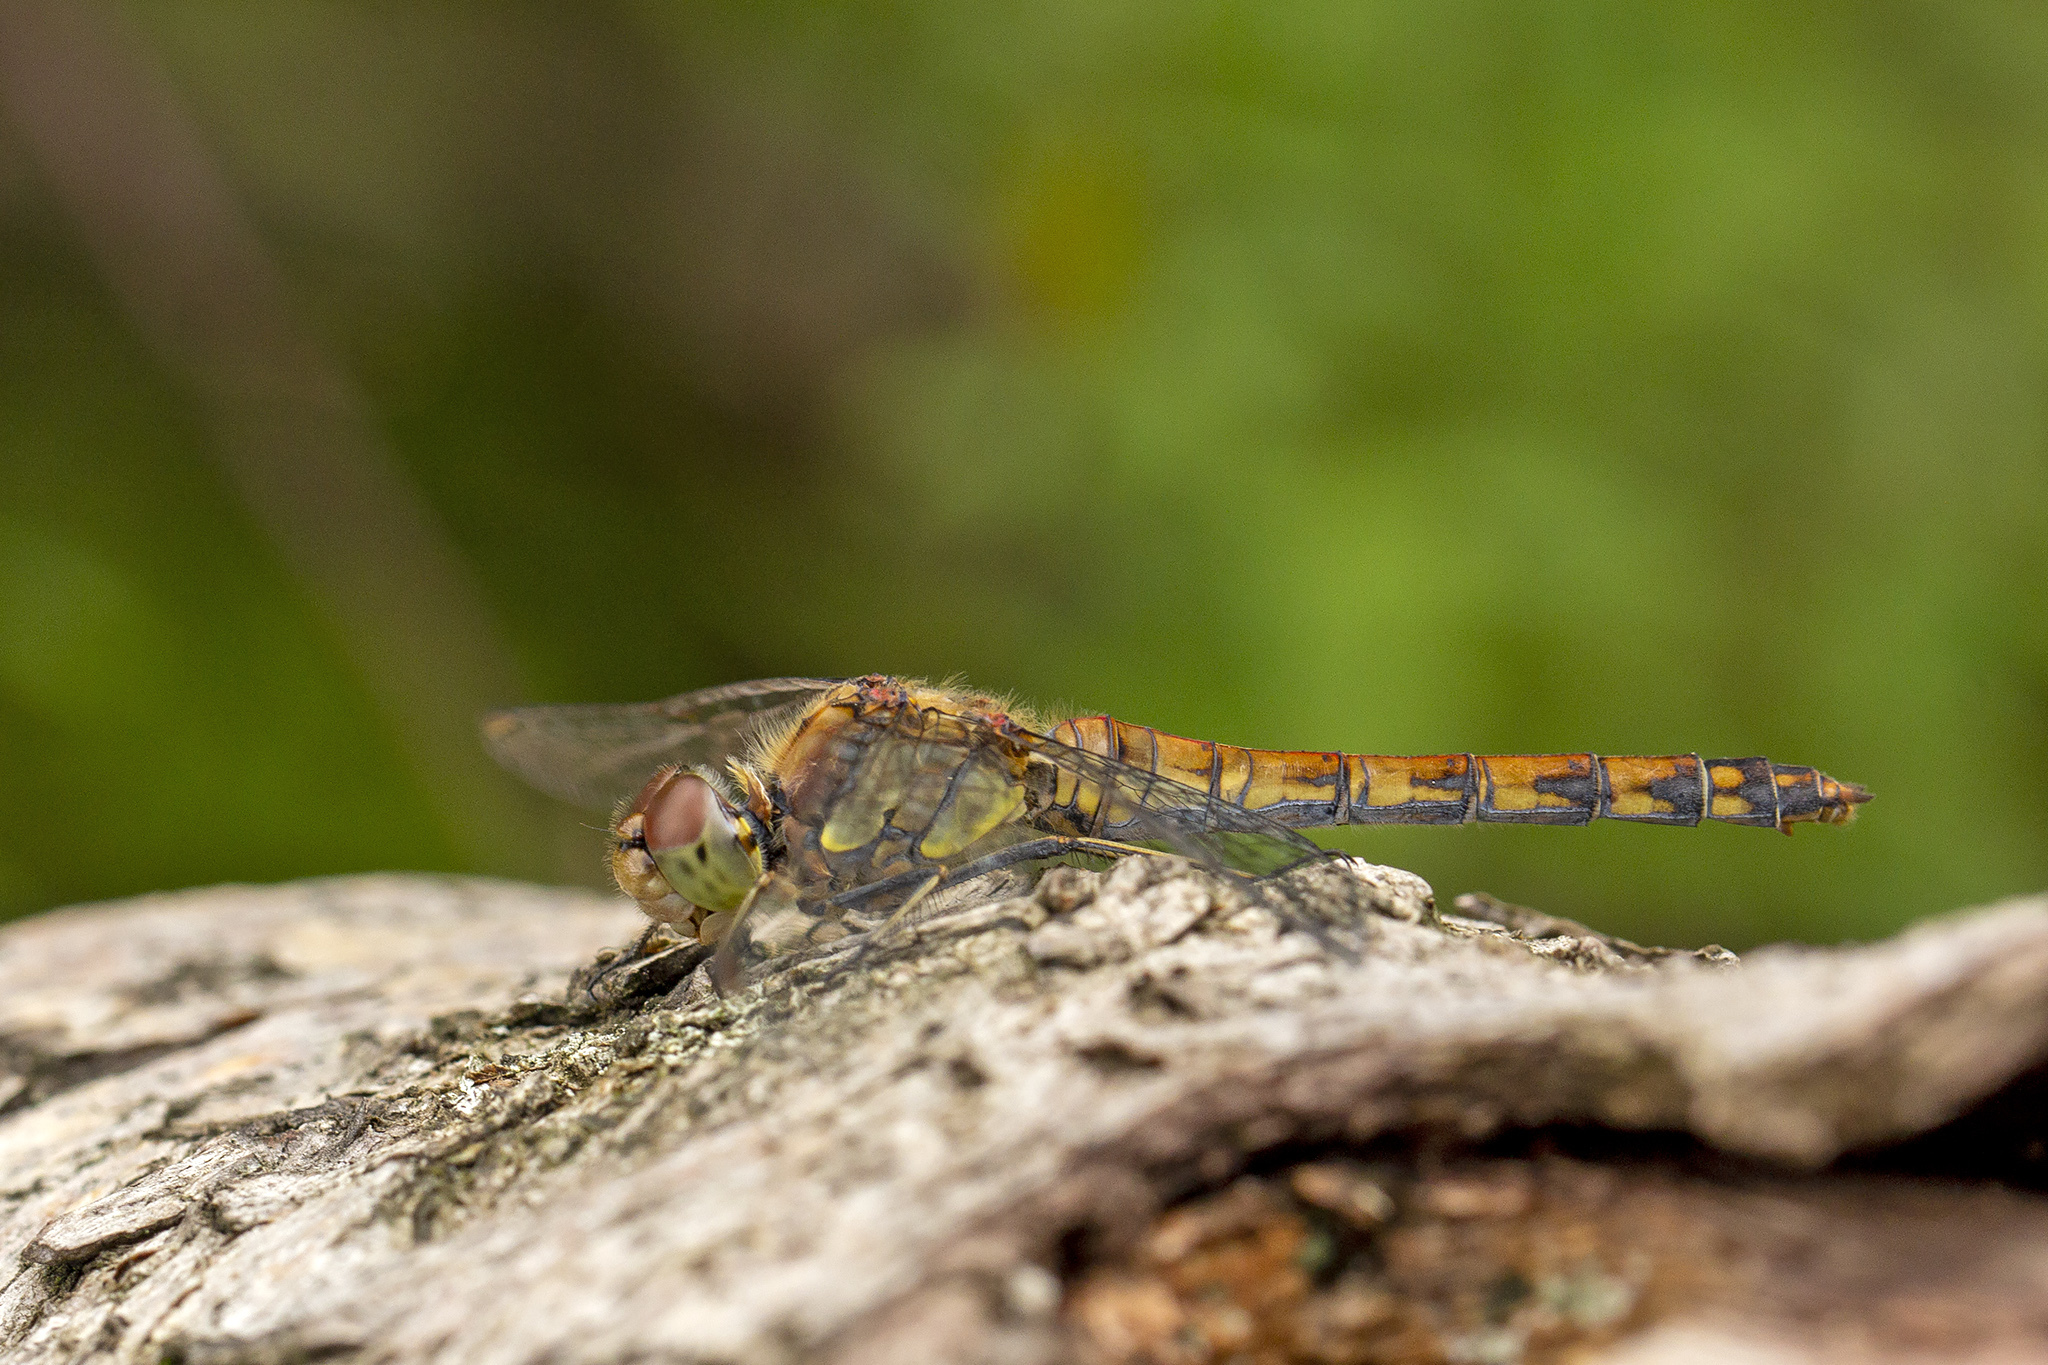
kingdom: Animalia
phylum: Arthropoda
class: Insecta
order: Odonata
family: Libellulidae
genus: Sympetrum
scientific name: Sympetrum striolatum
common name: Common darter
